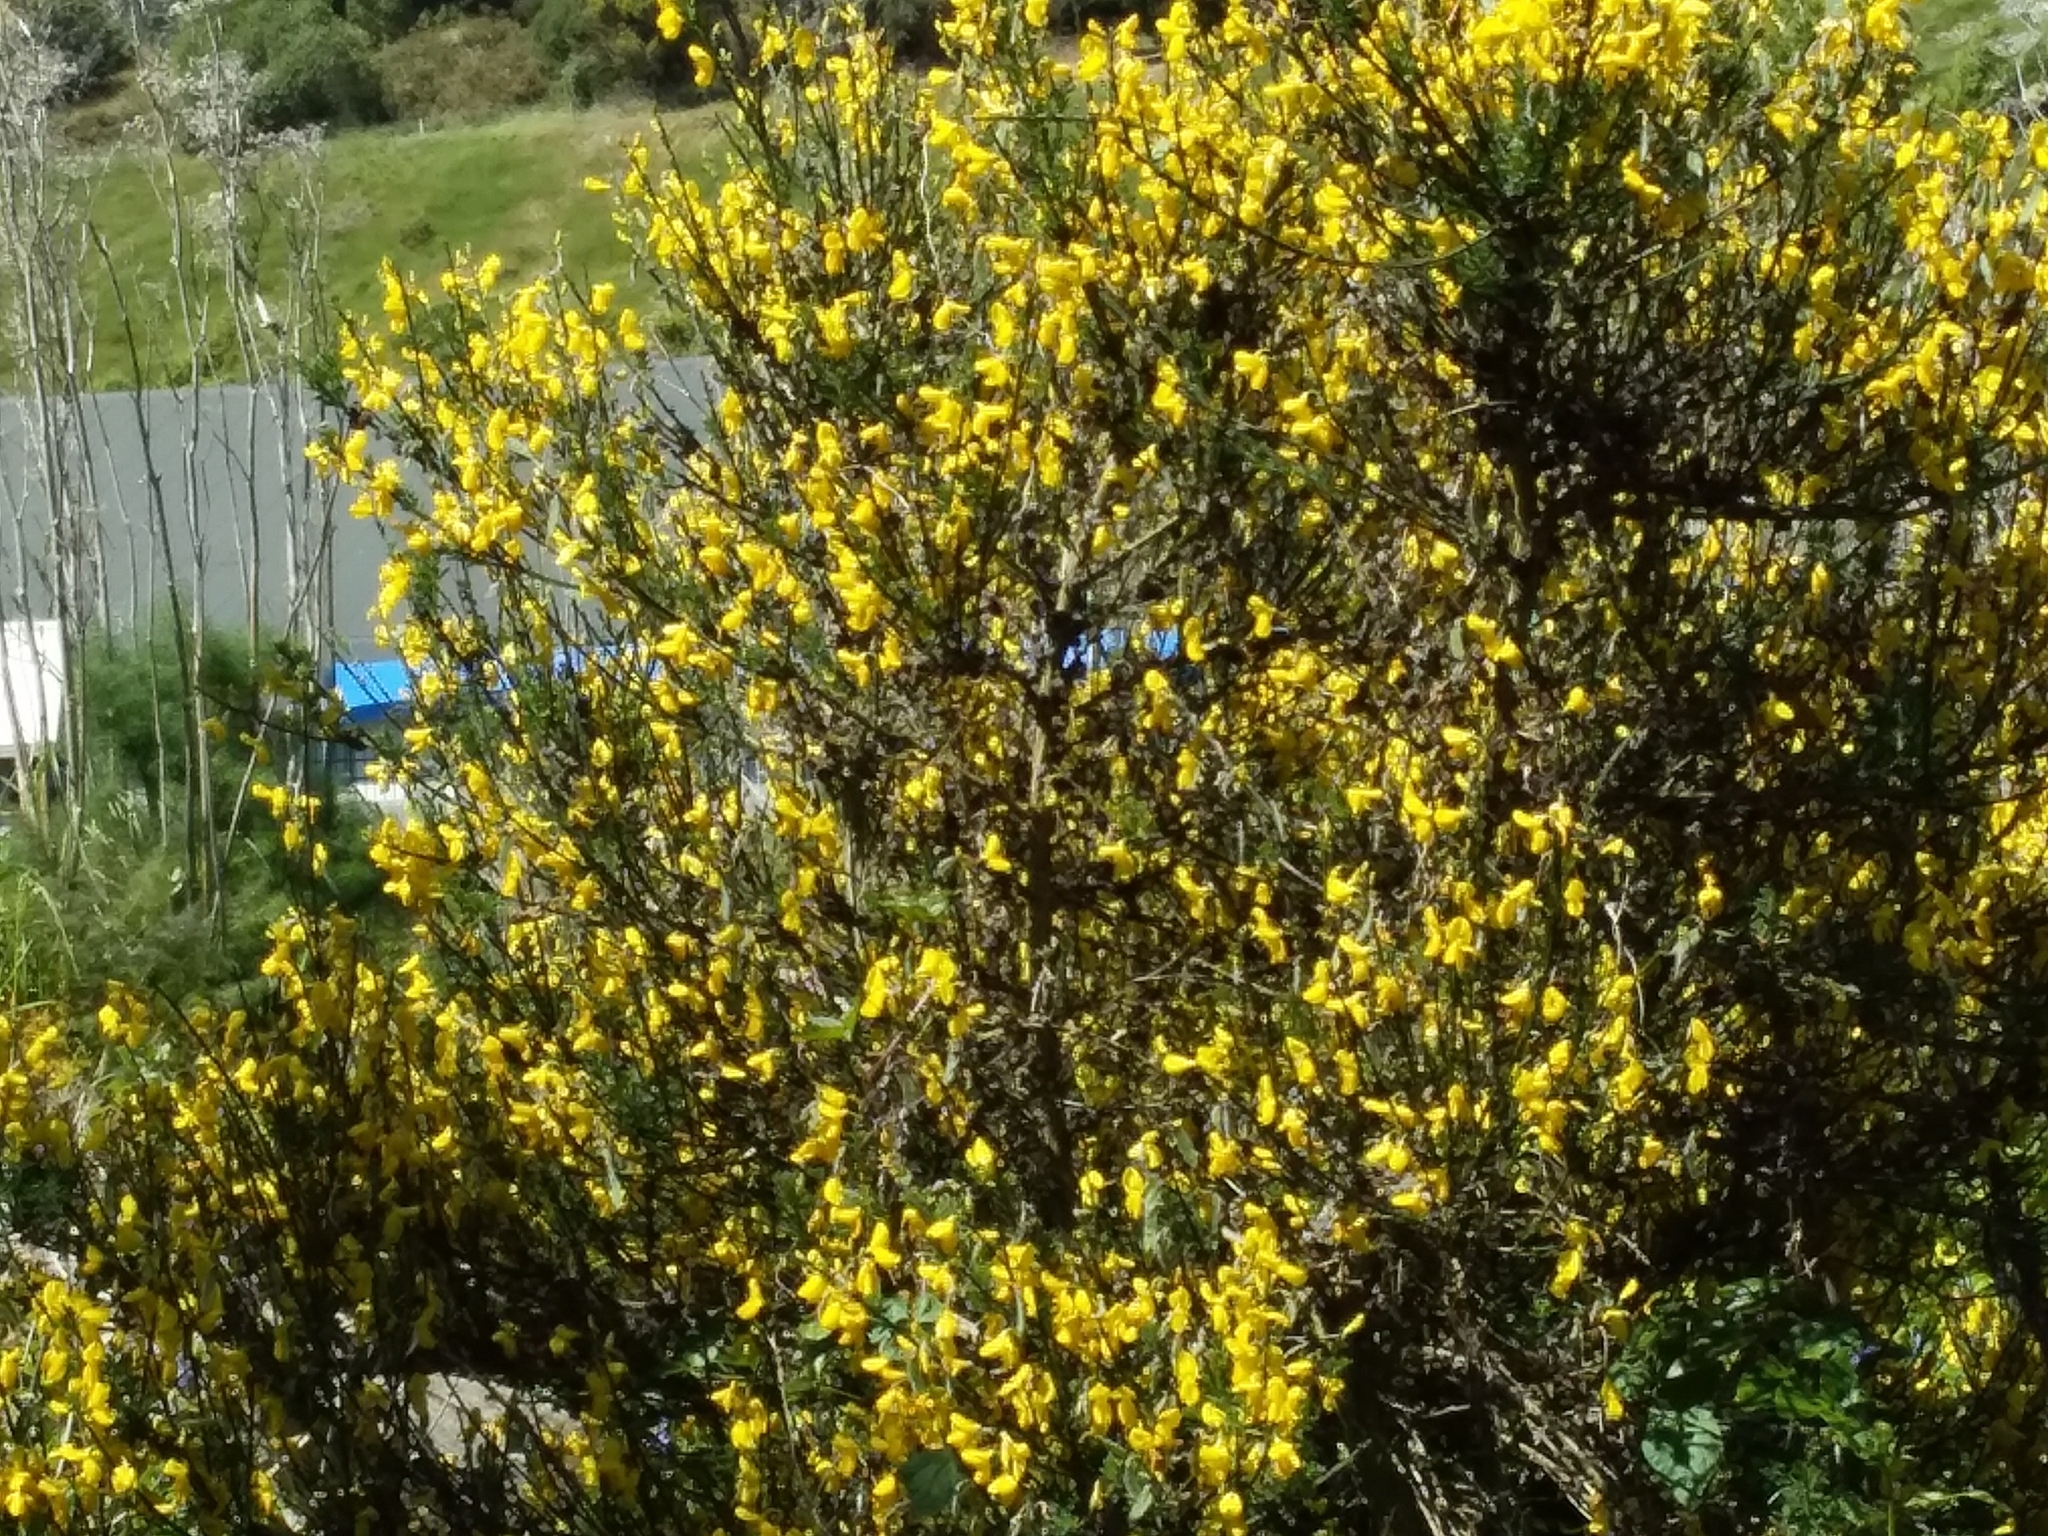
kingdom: Plantae
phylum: Tracheophyta
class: Magnoliopsida
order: Fabales
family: Fabaceae
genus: Cytisus
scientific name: Cytisus scoparius
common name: Scotch broom
